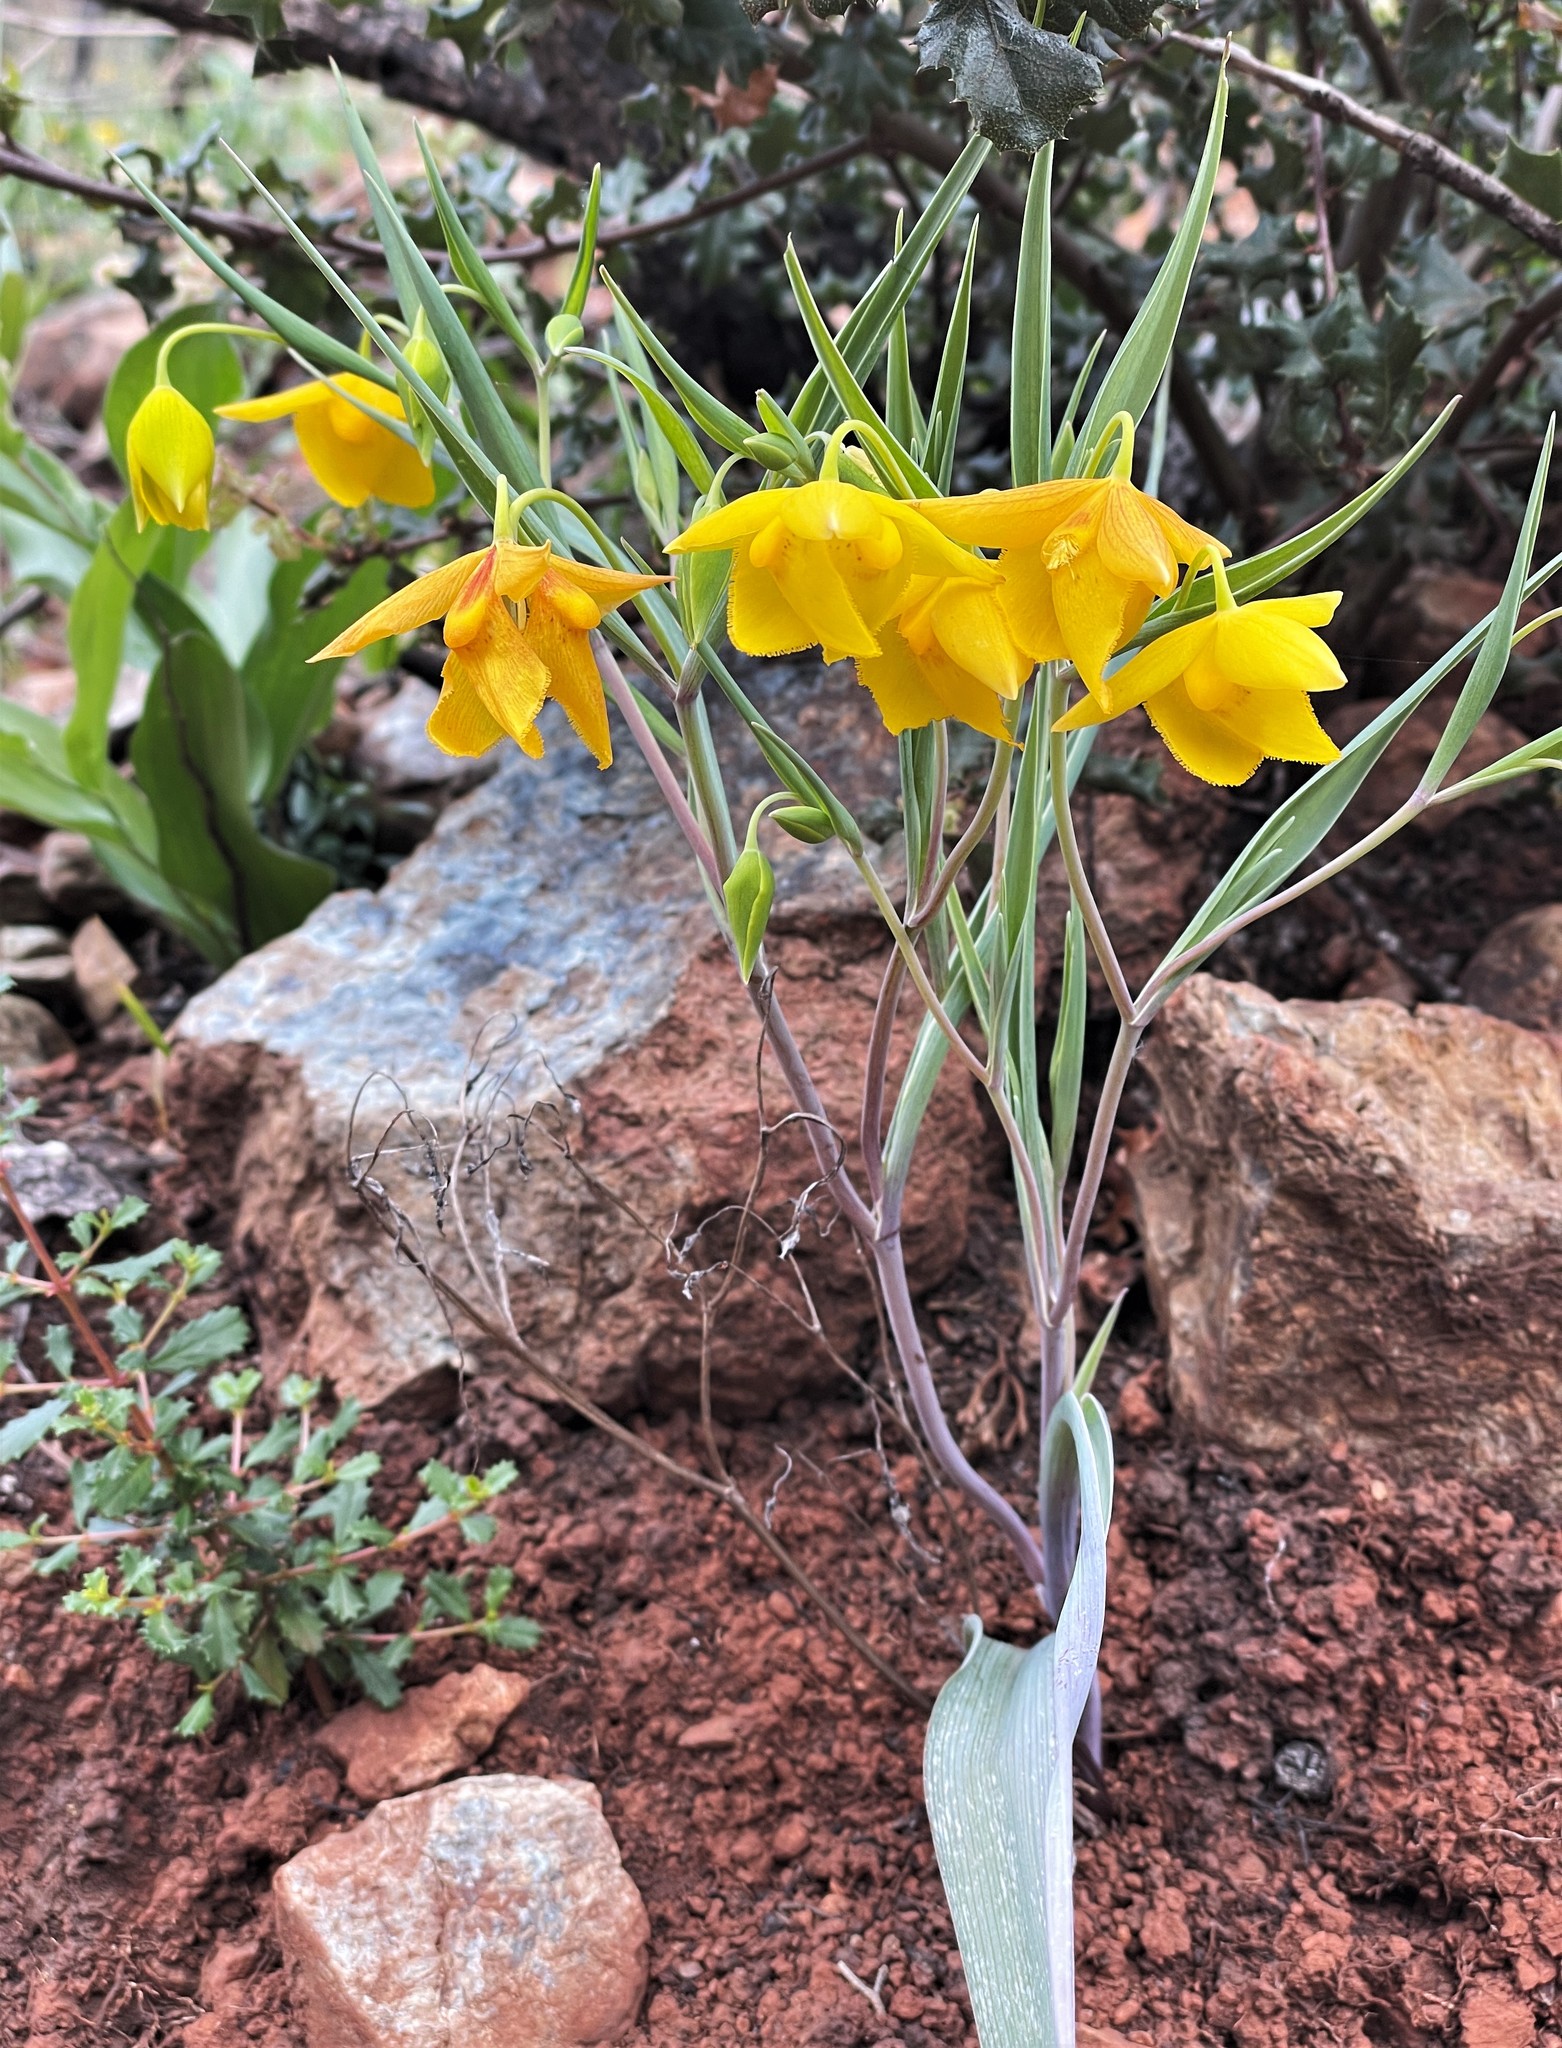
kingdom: Plantae
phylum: Tracheophyta
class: Liliopsida
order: Liliales
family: Liliaceae
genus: Calochortus
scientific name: Calochortus amabilis
